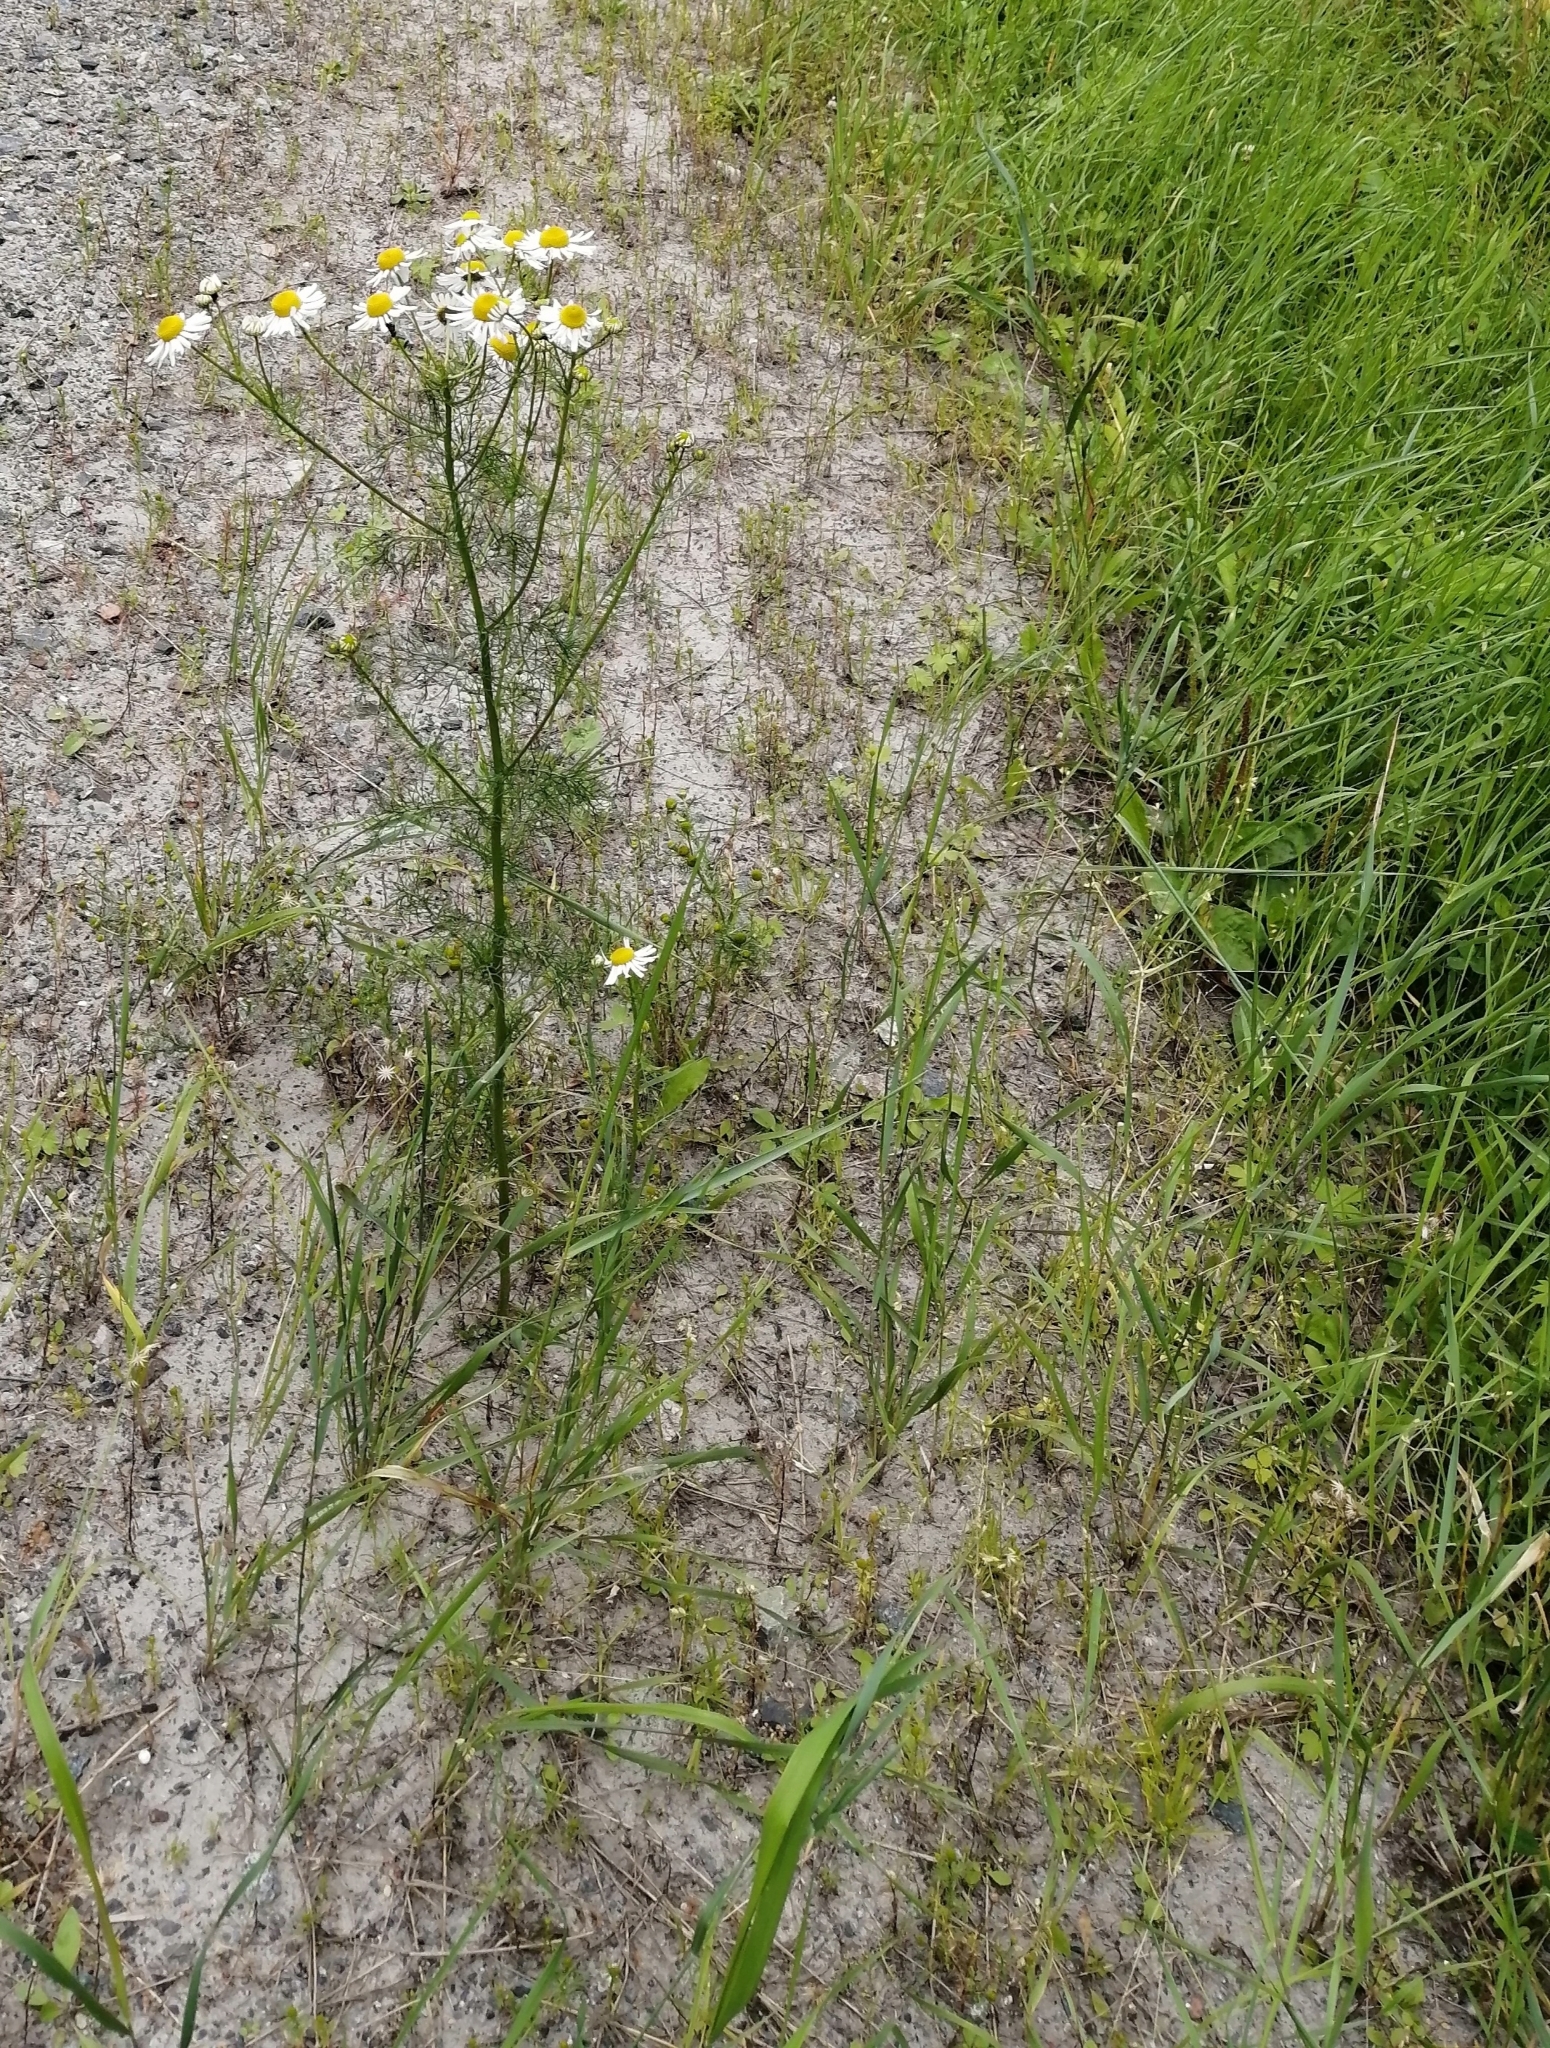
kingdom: Plantae
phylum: Tracheophyta
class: Magnoliopsida
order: Asterales
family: Asteraceae
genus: Tripleurospermum
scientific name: Tripleurospermum inodorum
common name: Scentless mayweed
